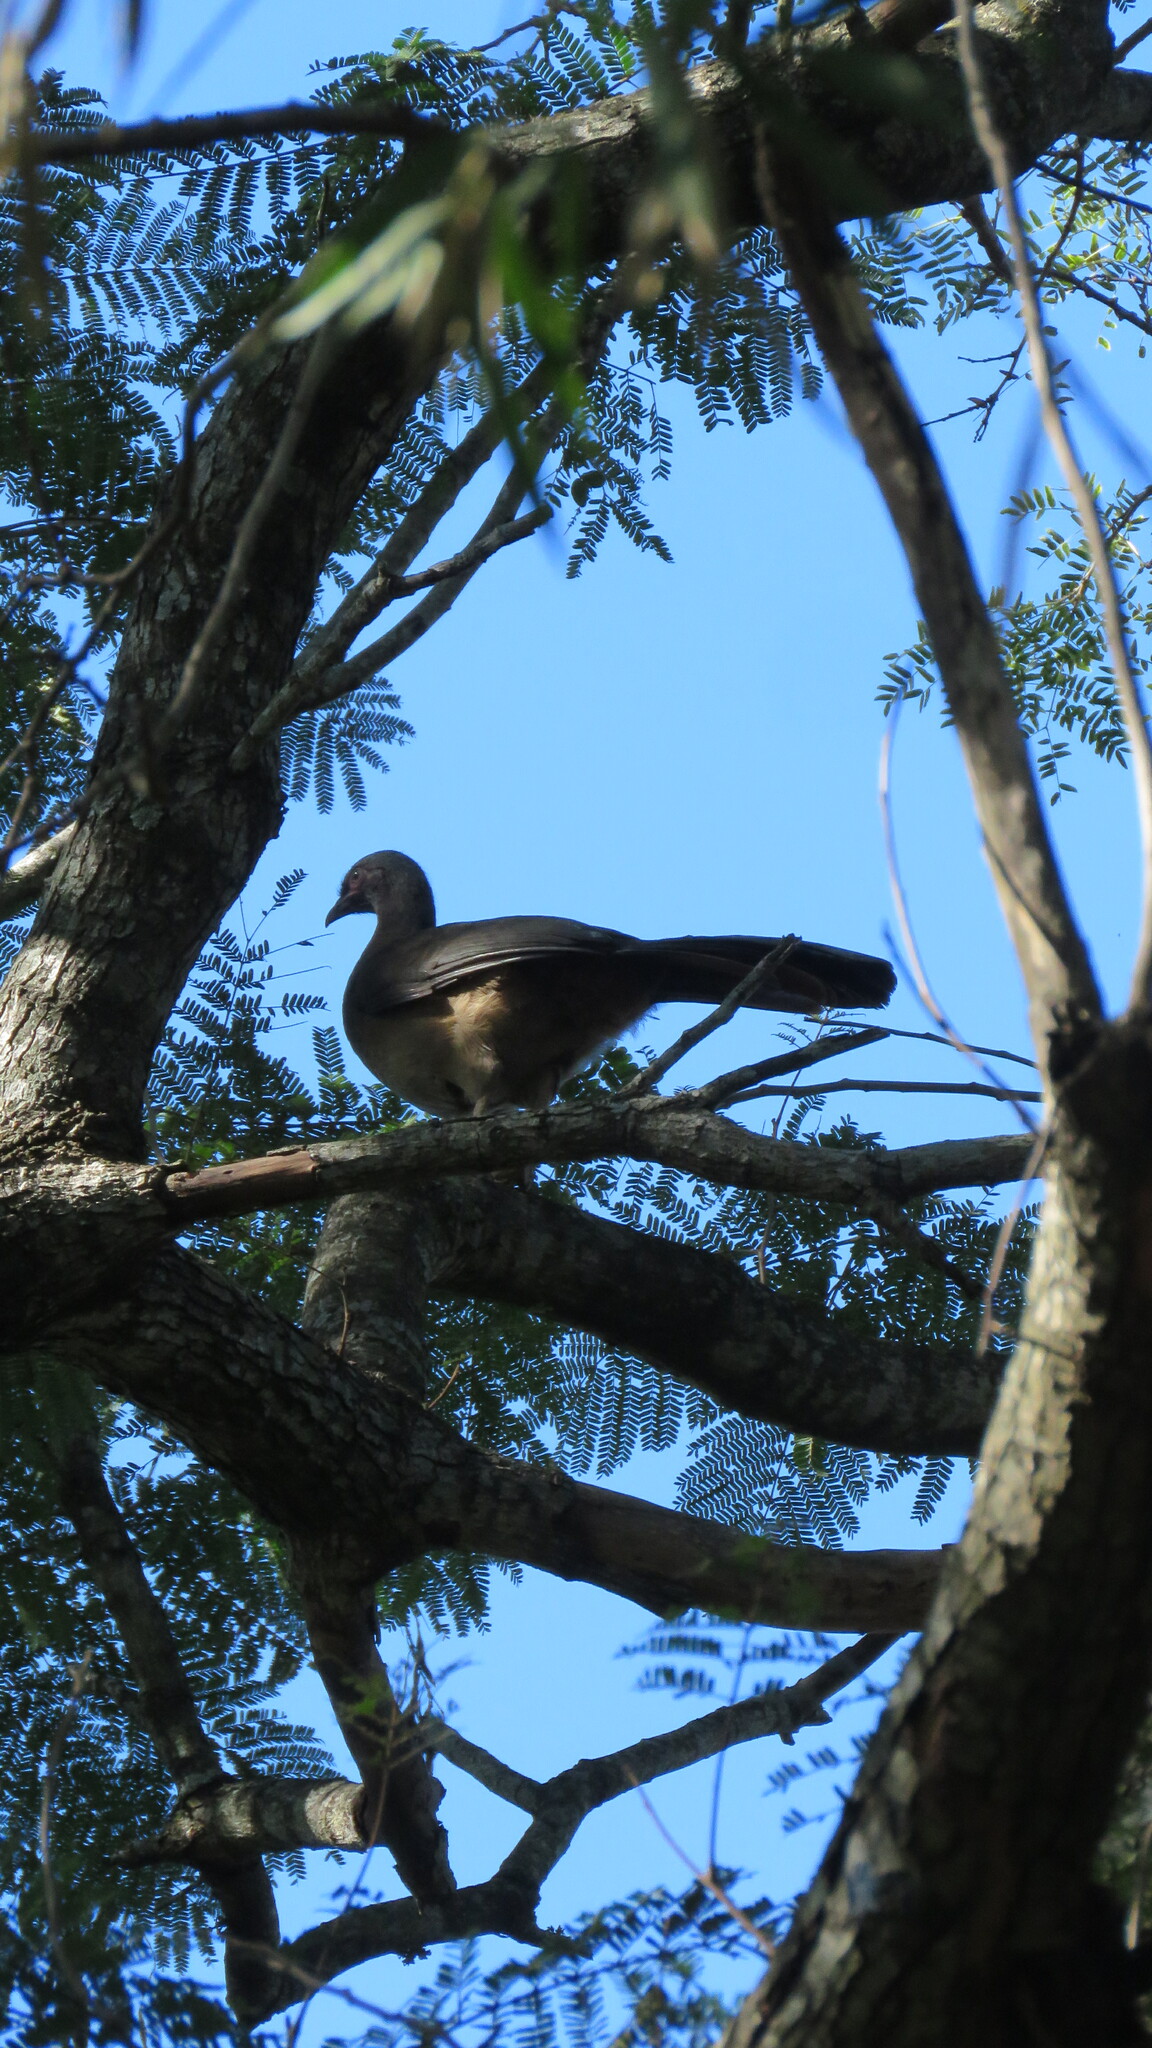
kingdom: Animalia
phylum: Chordata
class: Aves
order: Galliformes
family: Cracidae
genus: Ortalis
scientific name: Ortalis canicollis
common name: Chaco chachalaca
